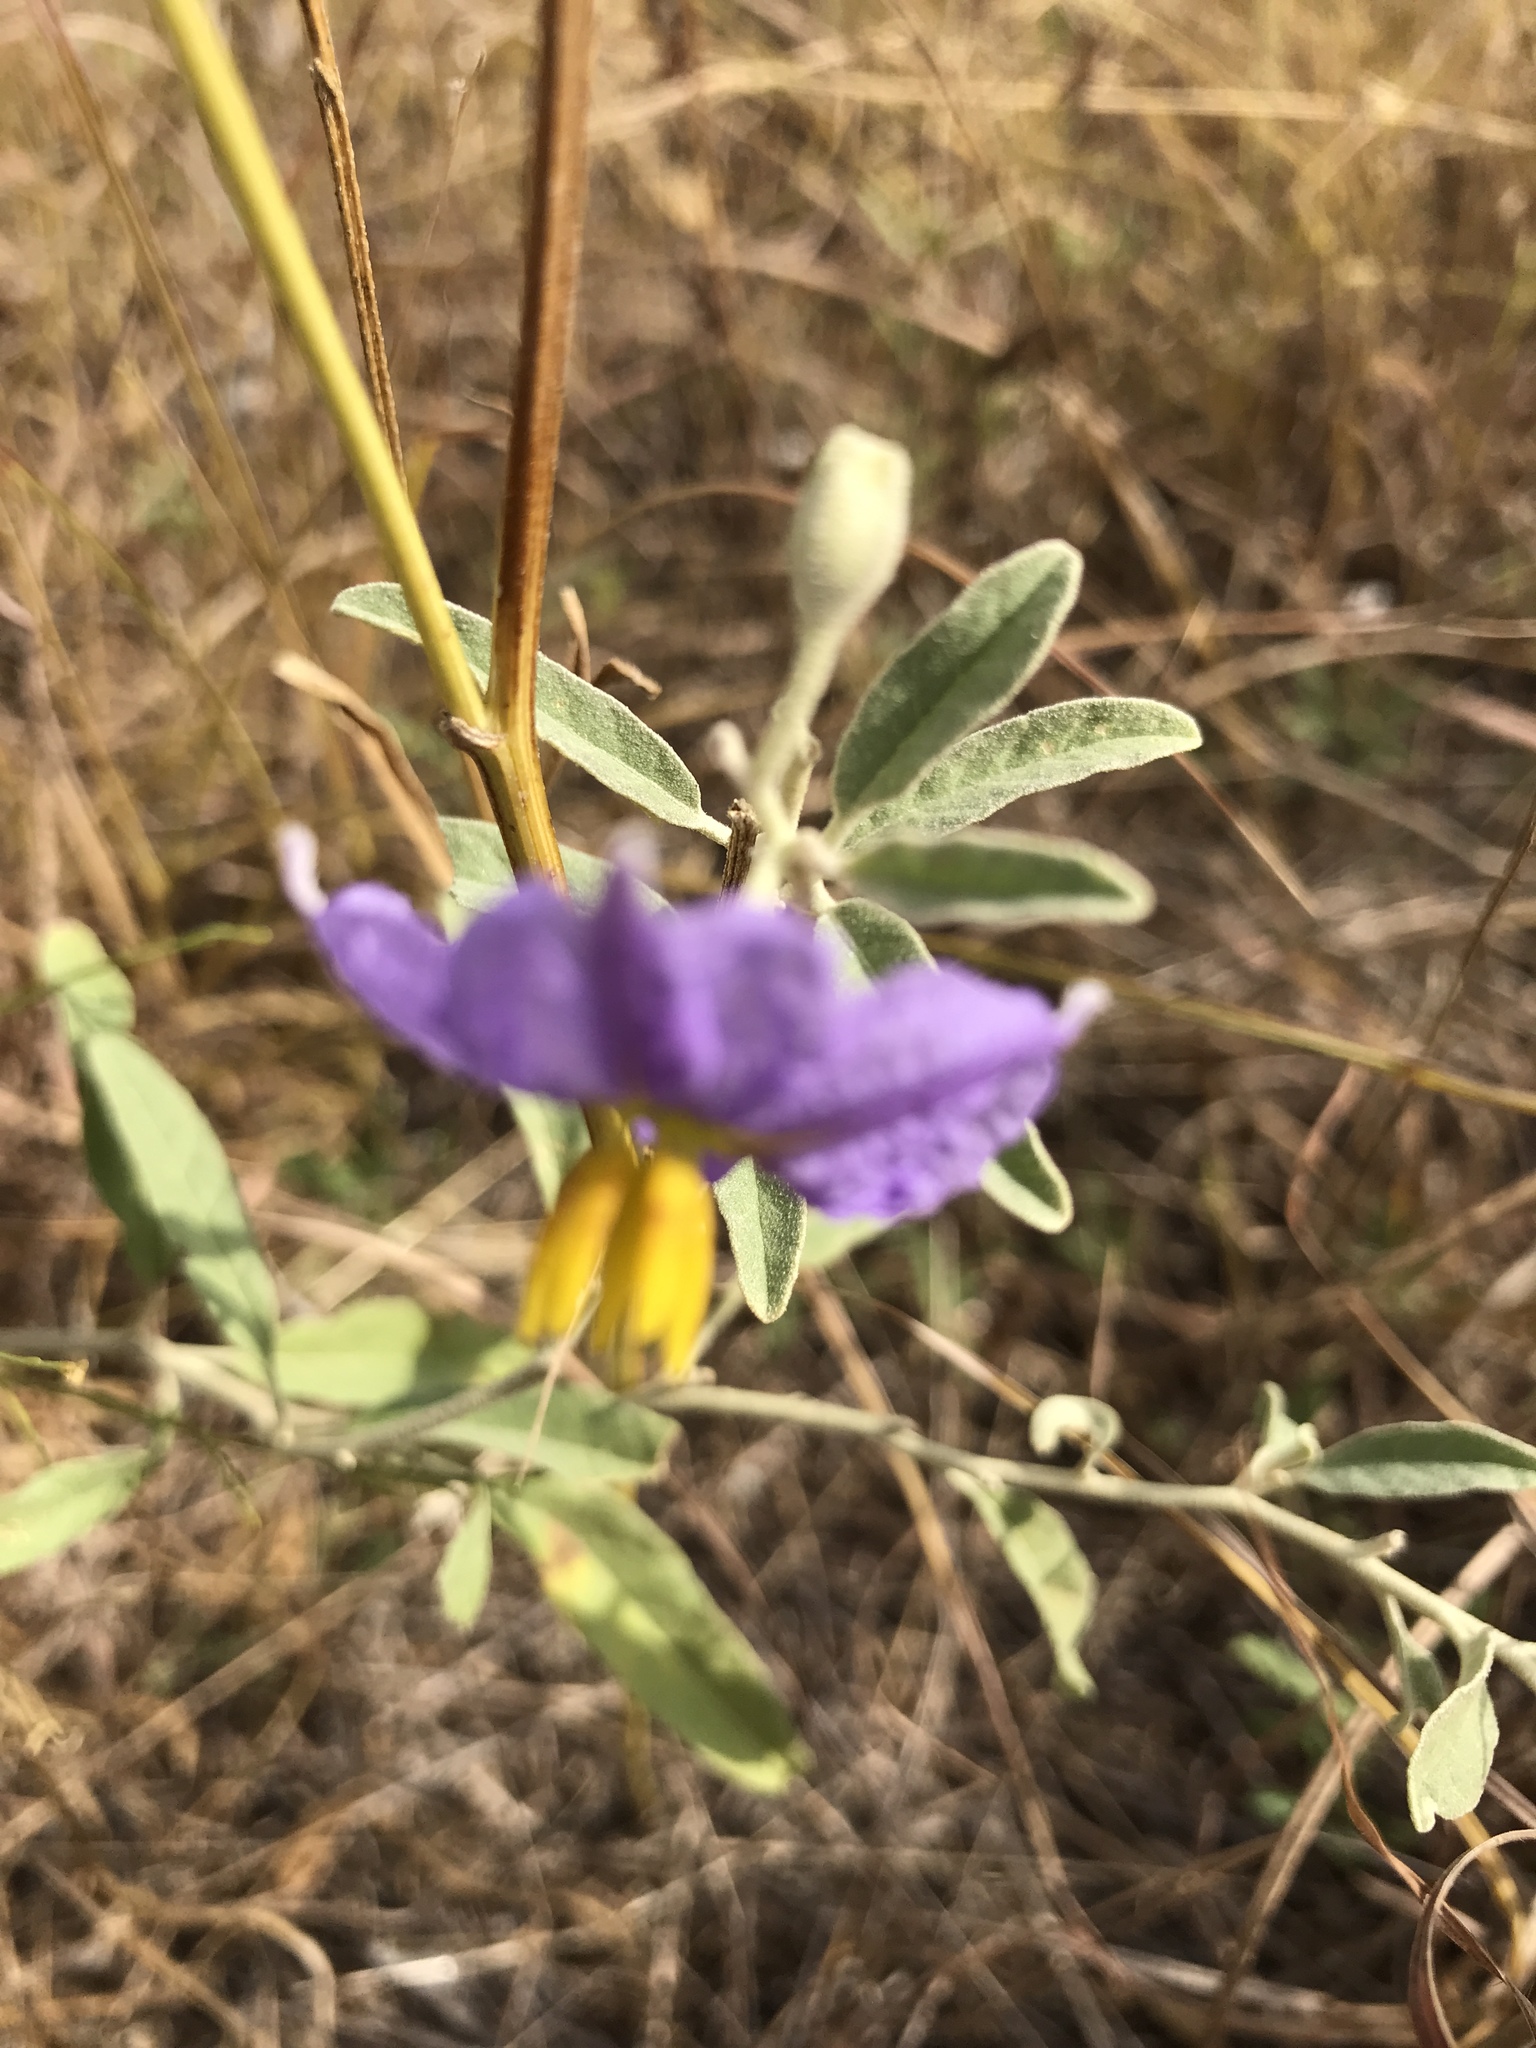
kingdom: Plantae
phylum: Tracheophyta
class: Magnoliopsida
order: Solanales
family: Solanaceae
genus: Solanum
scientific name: Solanum elaeagnifolium
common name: Silverleaf nightshade
